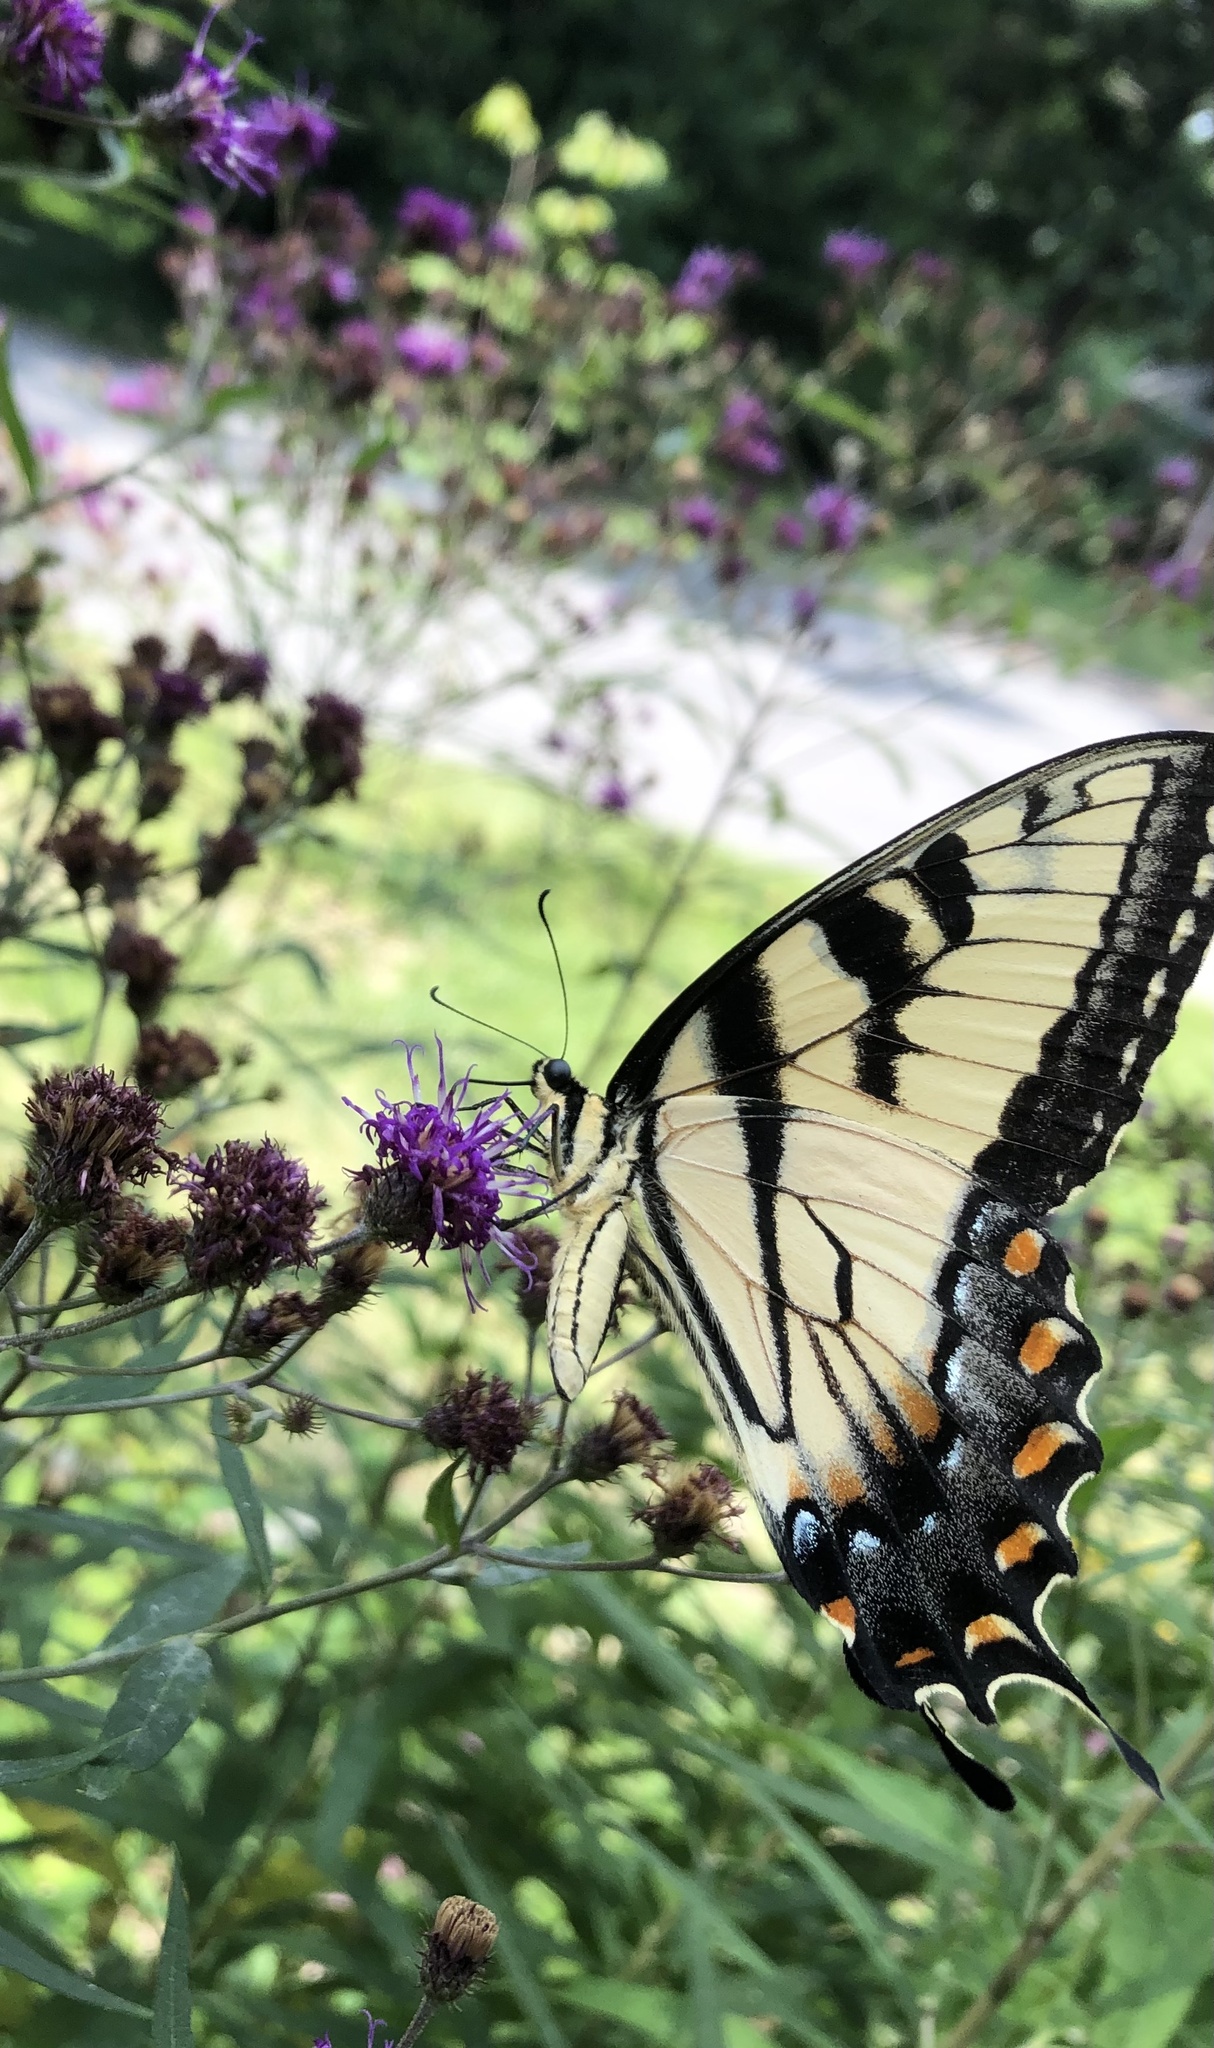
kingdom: Animalia
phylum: Arthropoda
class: Insecta
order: Lepidoptera
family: Papilionidae
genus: Papilio
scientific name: Papilio glaucus
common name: Tiger swallowtail
